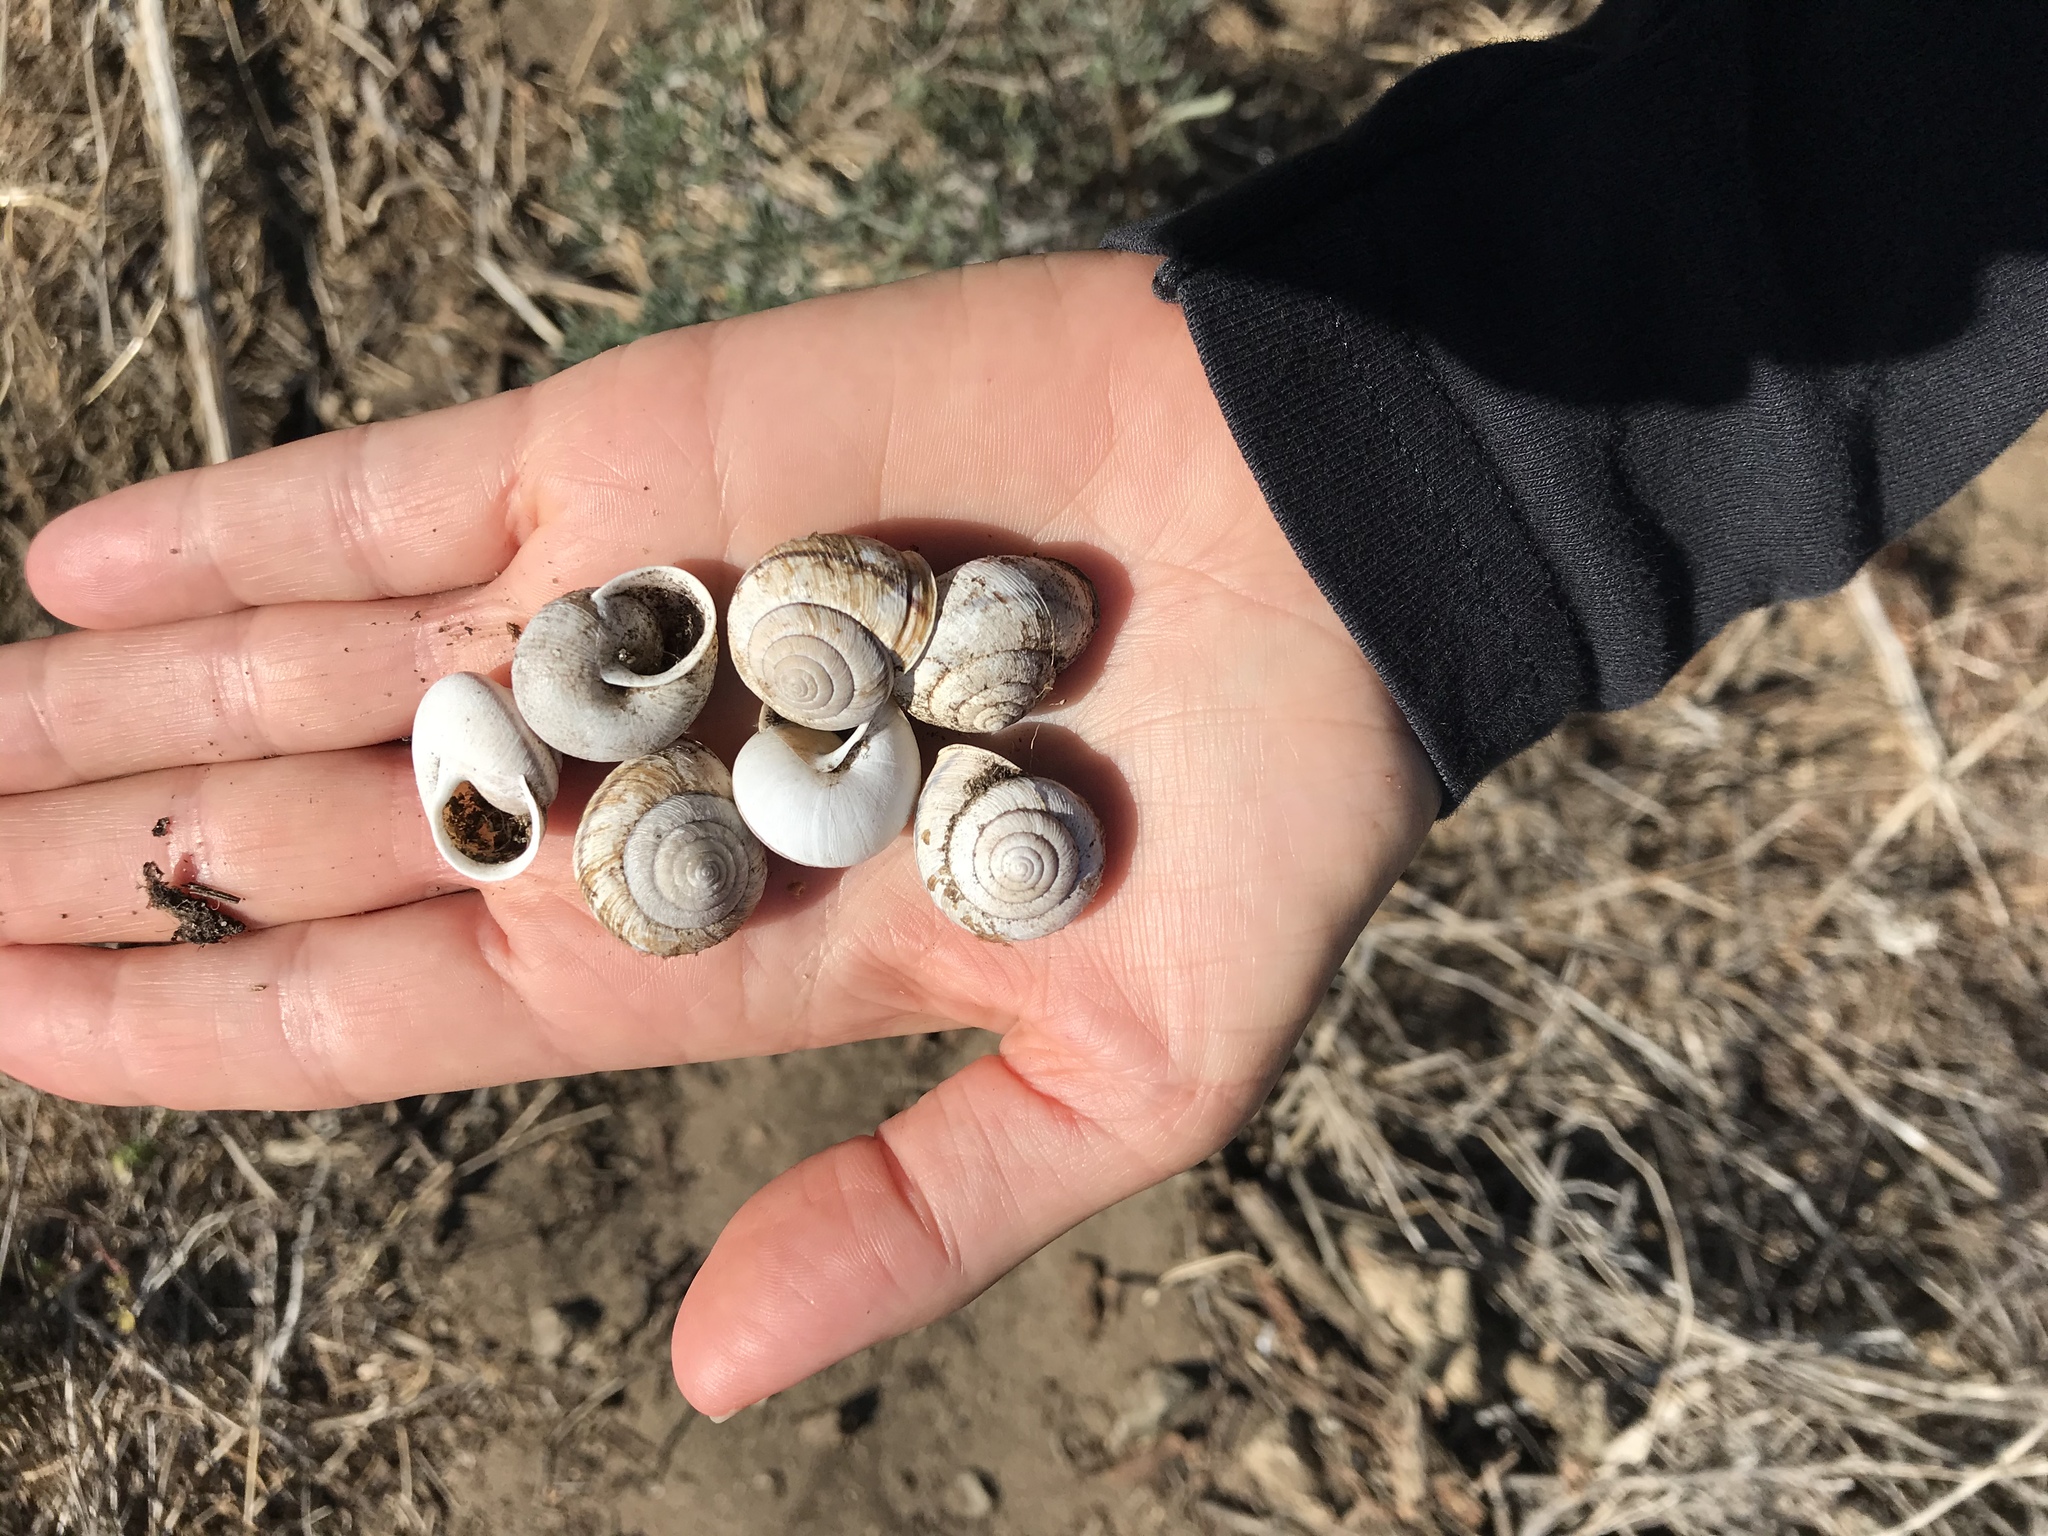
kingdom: Animalia
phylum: Mollusca
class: Gastropoda
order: Stylommatophora
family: Xanthonychidae
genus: Helminthoglypta
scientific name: Helminthoglypta stiversiana
